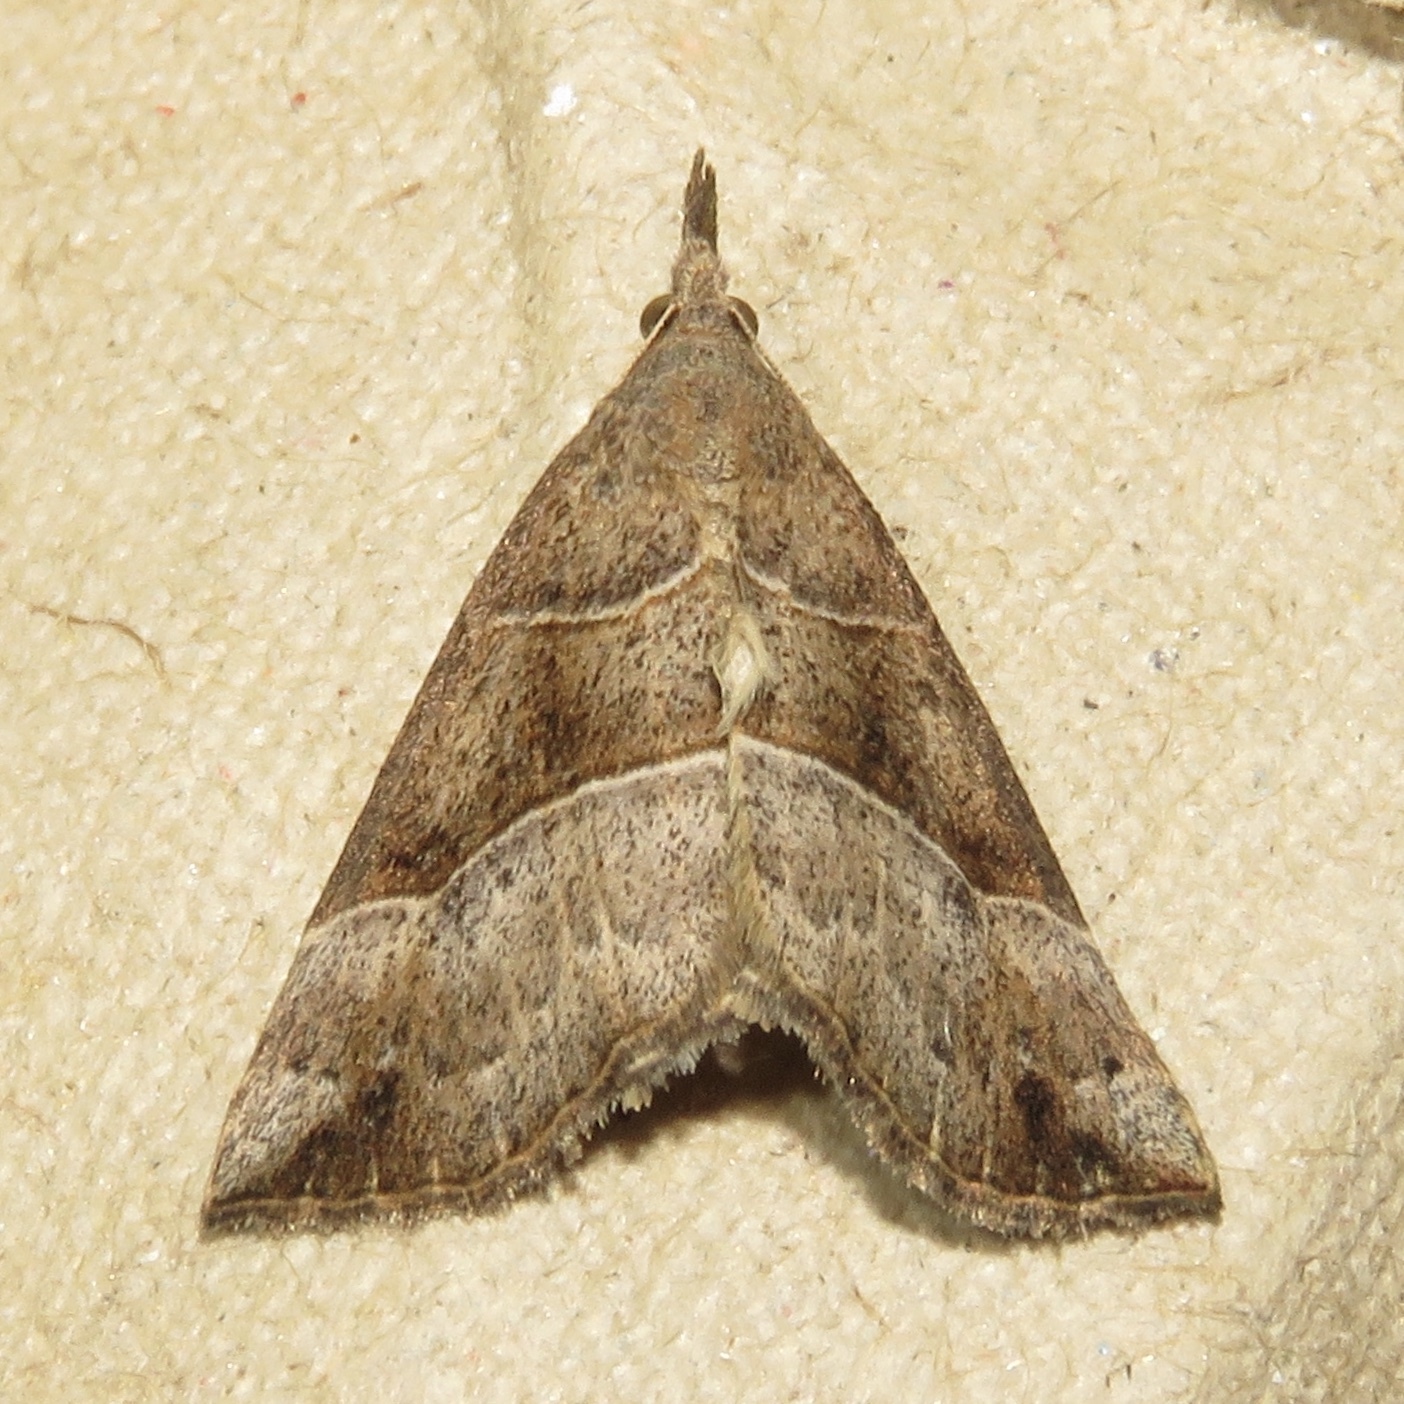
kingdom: Animalia
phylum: Arthropoda
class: Insecta
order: Lepidoptera
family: Erebidae
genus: Hypena
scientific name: Hypena deceptalis
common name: Deceptive snout
